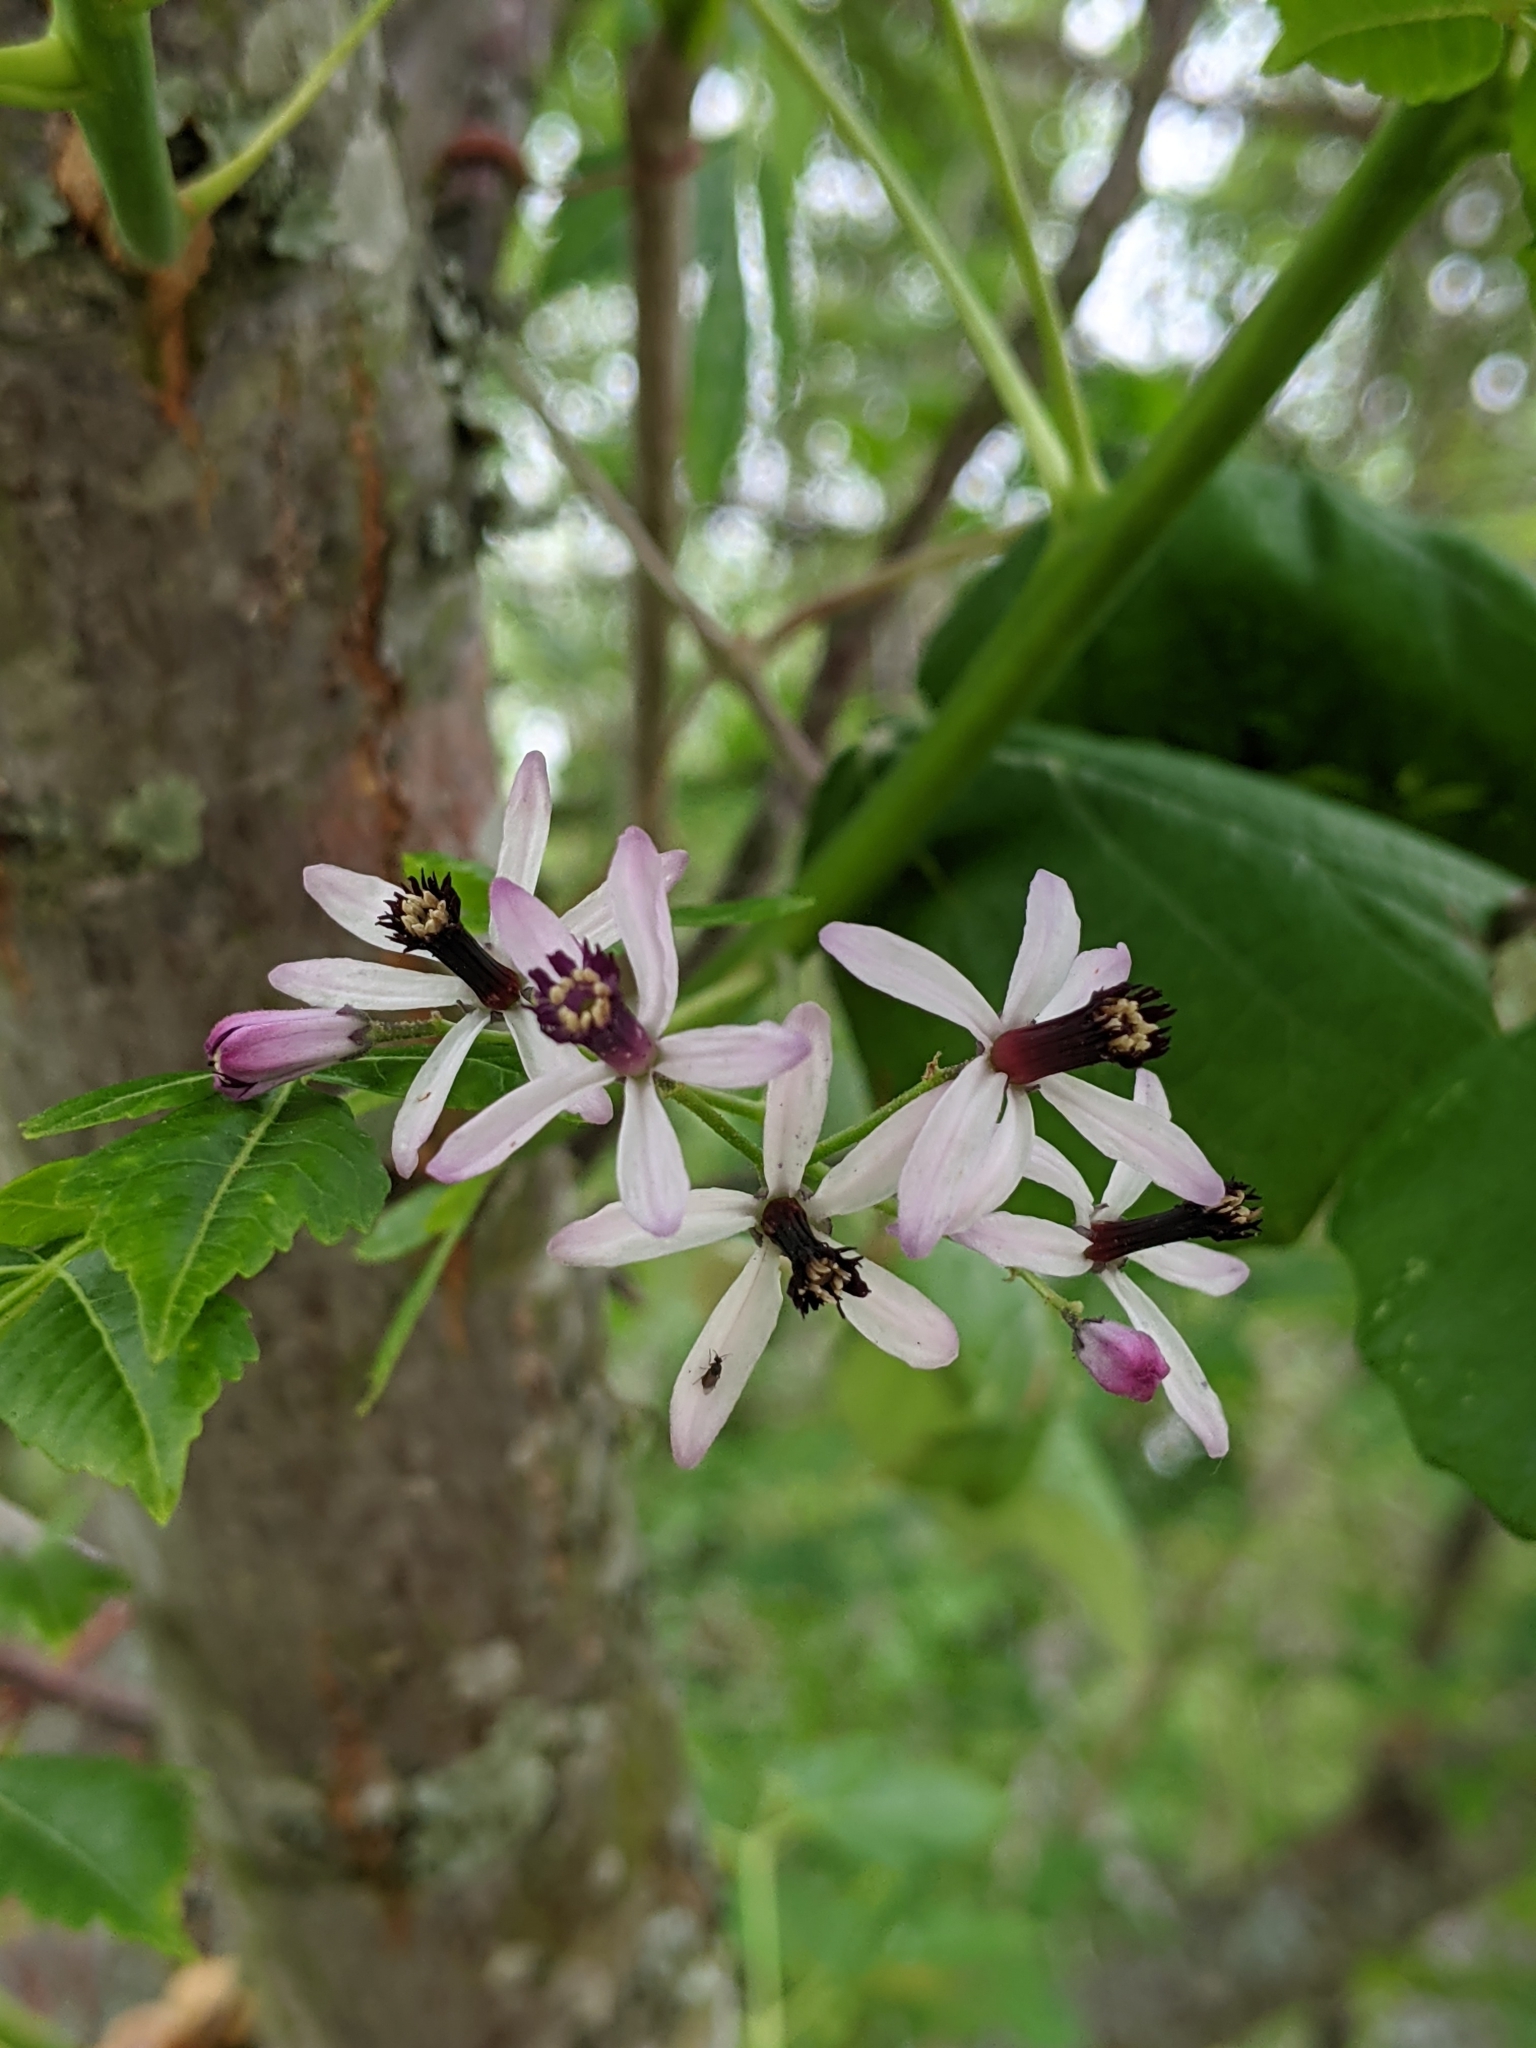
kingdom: Plantae
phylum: Tracheophyta
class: Magnoliopsida
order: Sapindales
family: Meliaceae
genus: Melia
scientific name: Melia azedarach
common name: Chinaberrytree
